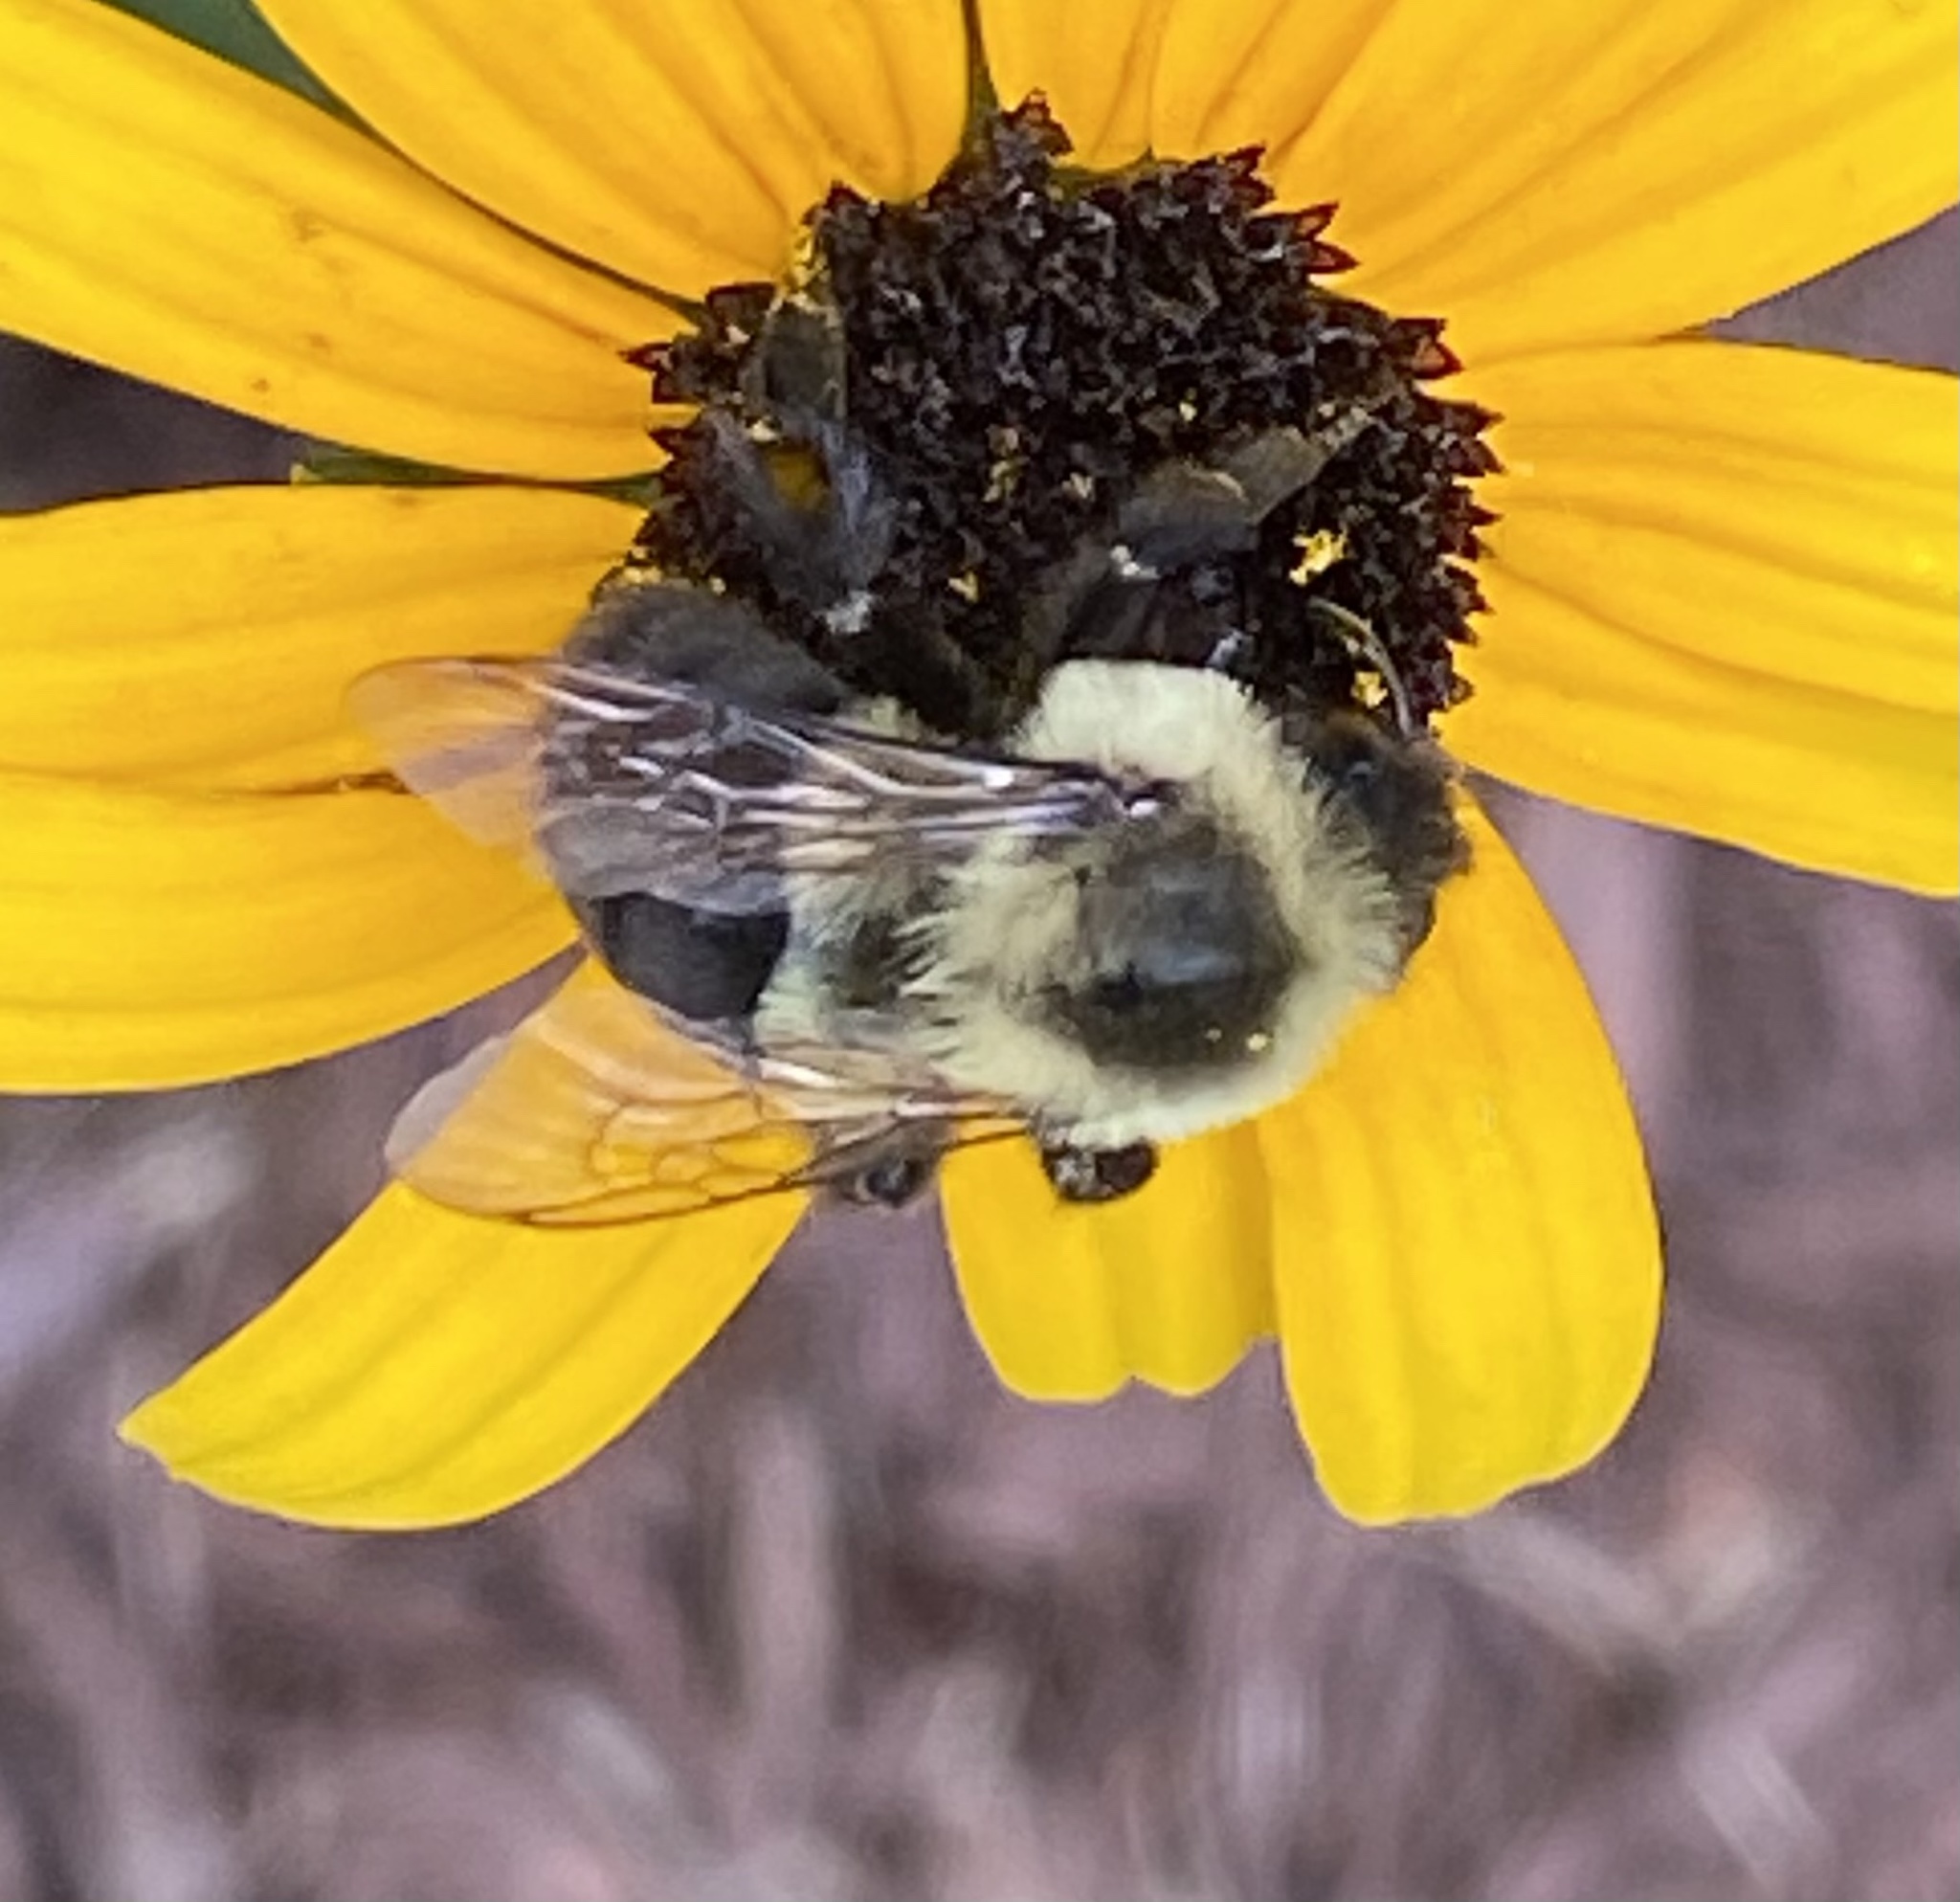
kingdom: Animalia
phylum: Arthropoda
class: Insecta
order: Hymenoptera
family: Apidae
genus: Bombus
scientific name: Bombus impatiens
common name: Common eastern bumble bee
